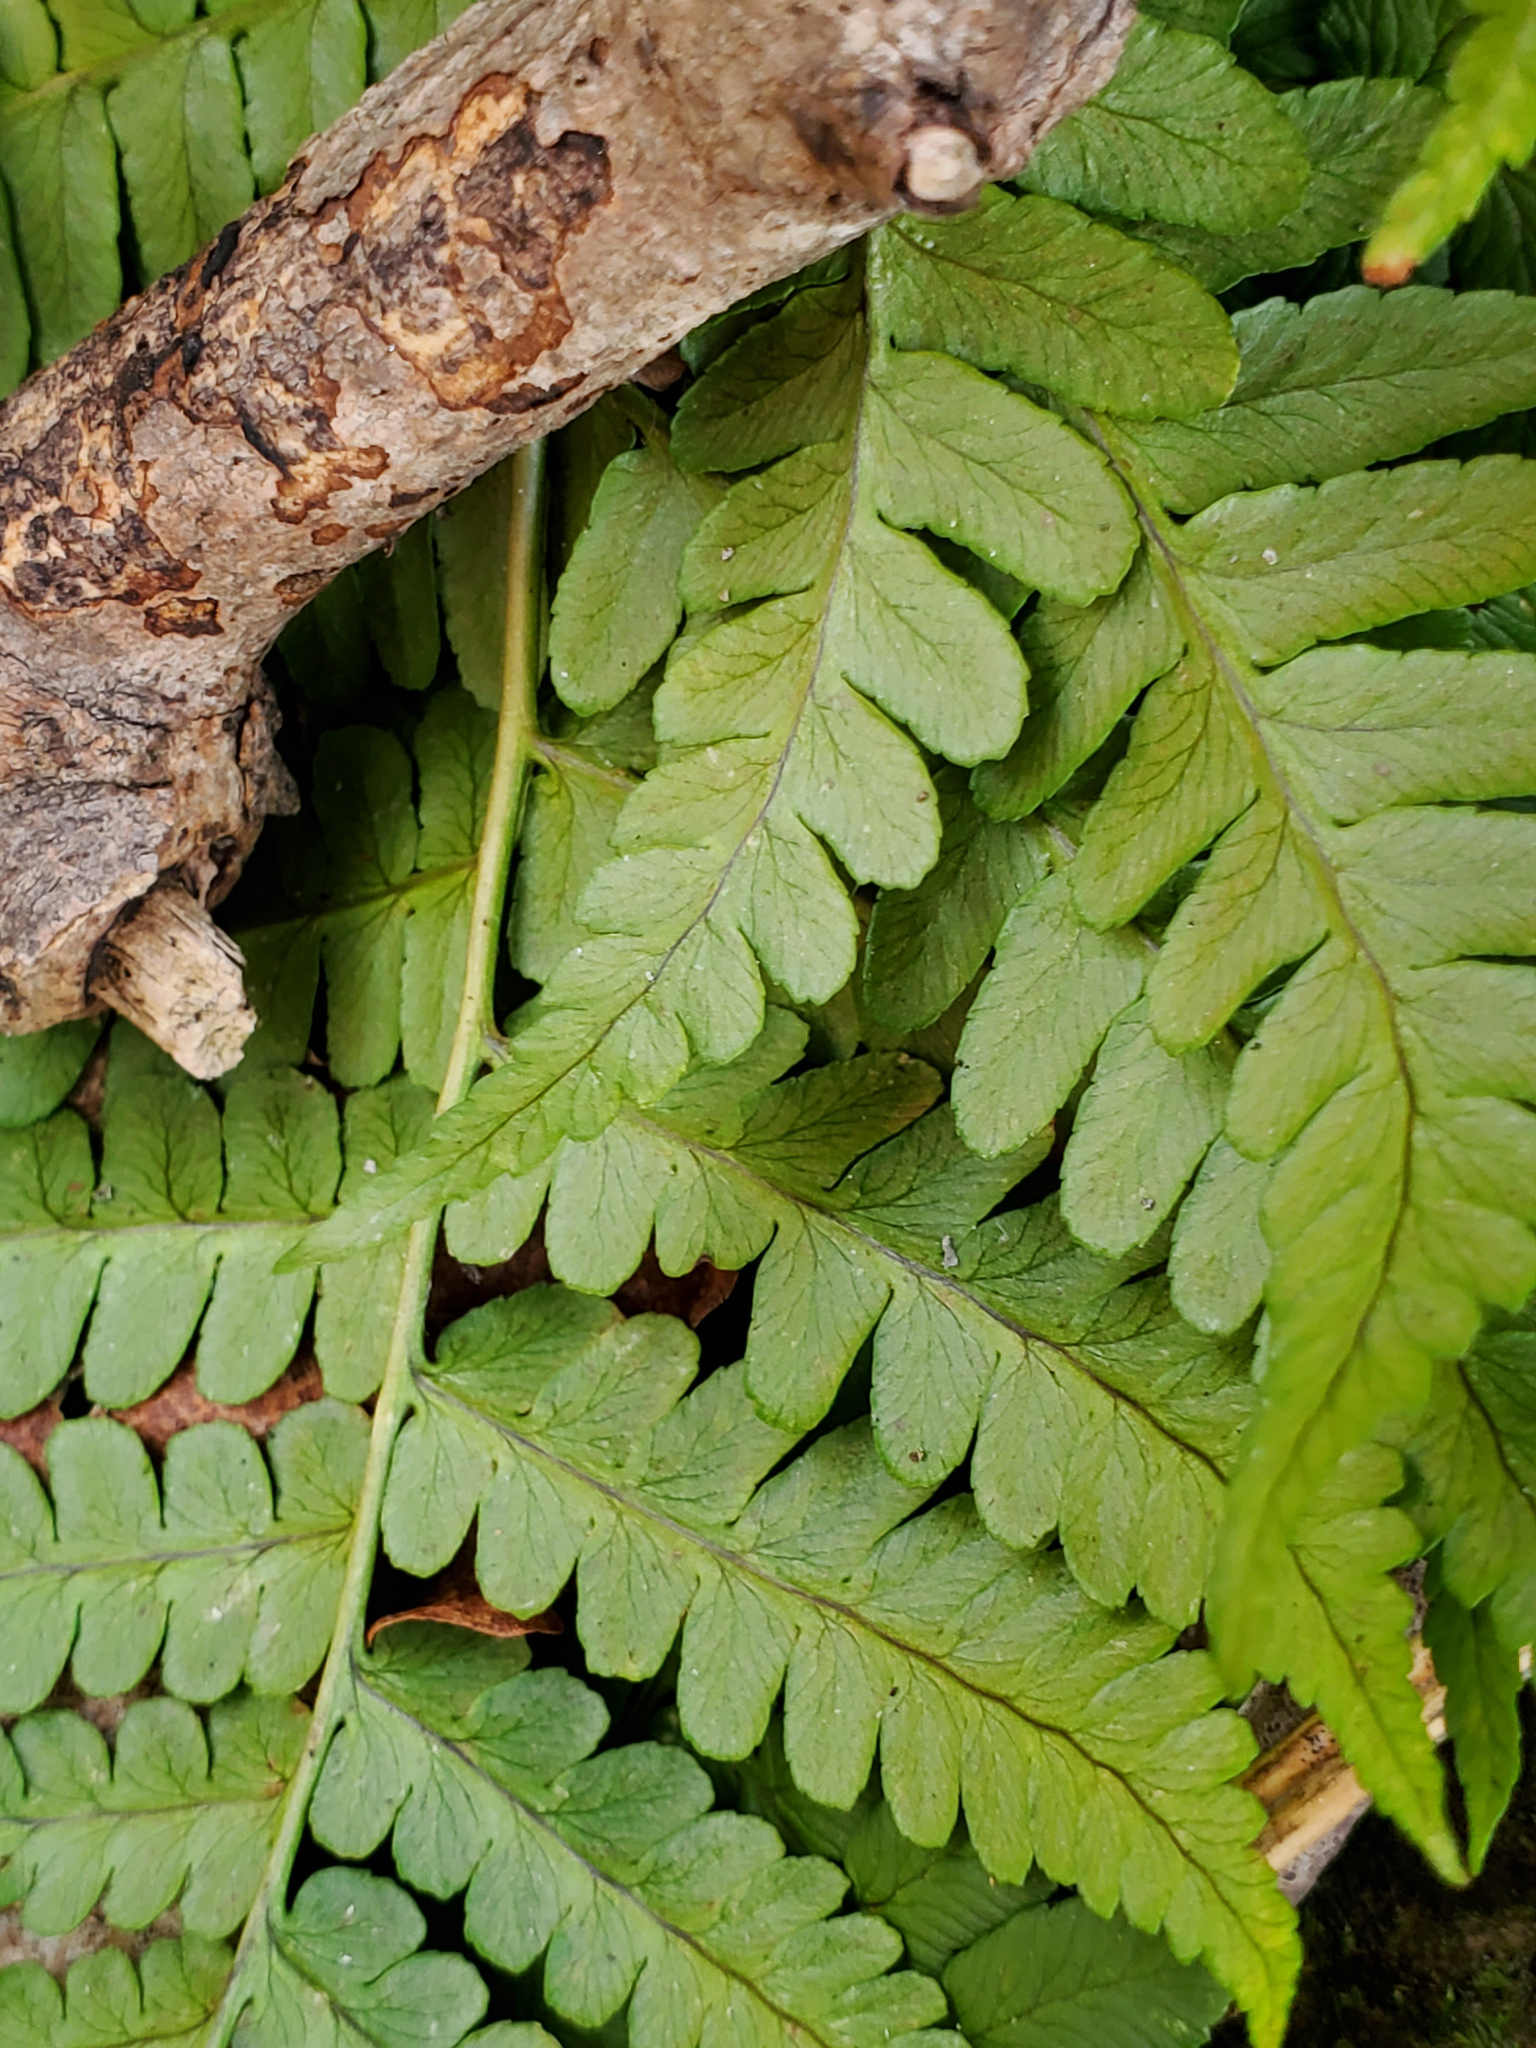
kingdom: Plantae
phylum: Tracheophyta
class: Polypodiopsida
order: Polypodiales
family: Dryopteridaceae
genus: Dryopteris
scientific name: Dryopteris marginalis
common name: Marginal wood fern
